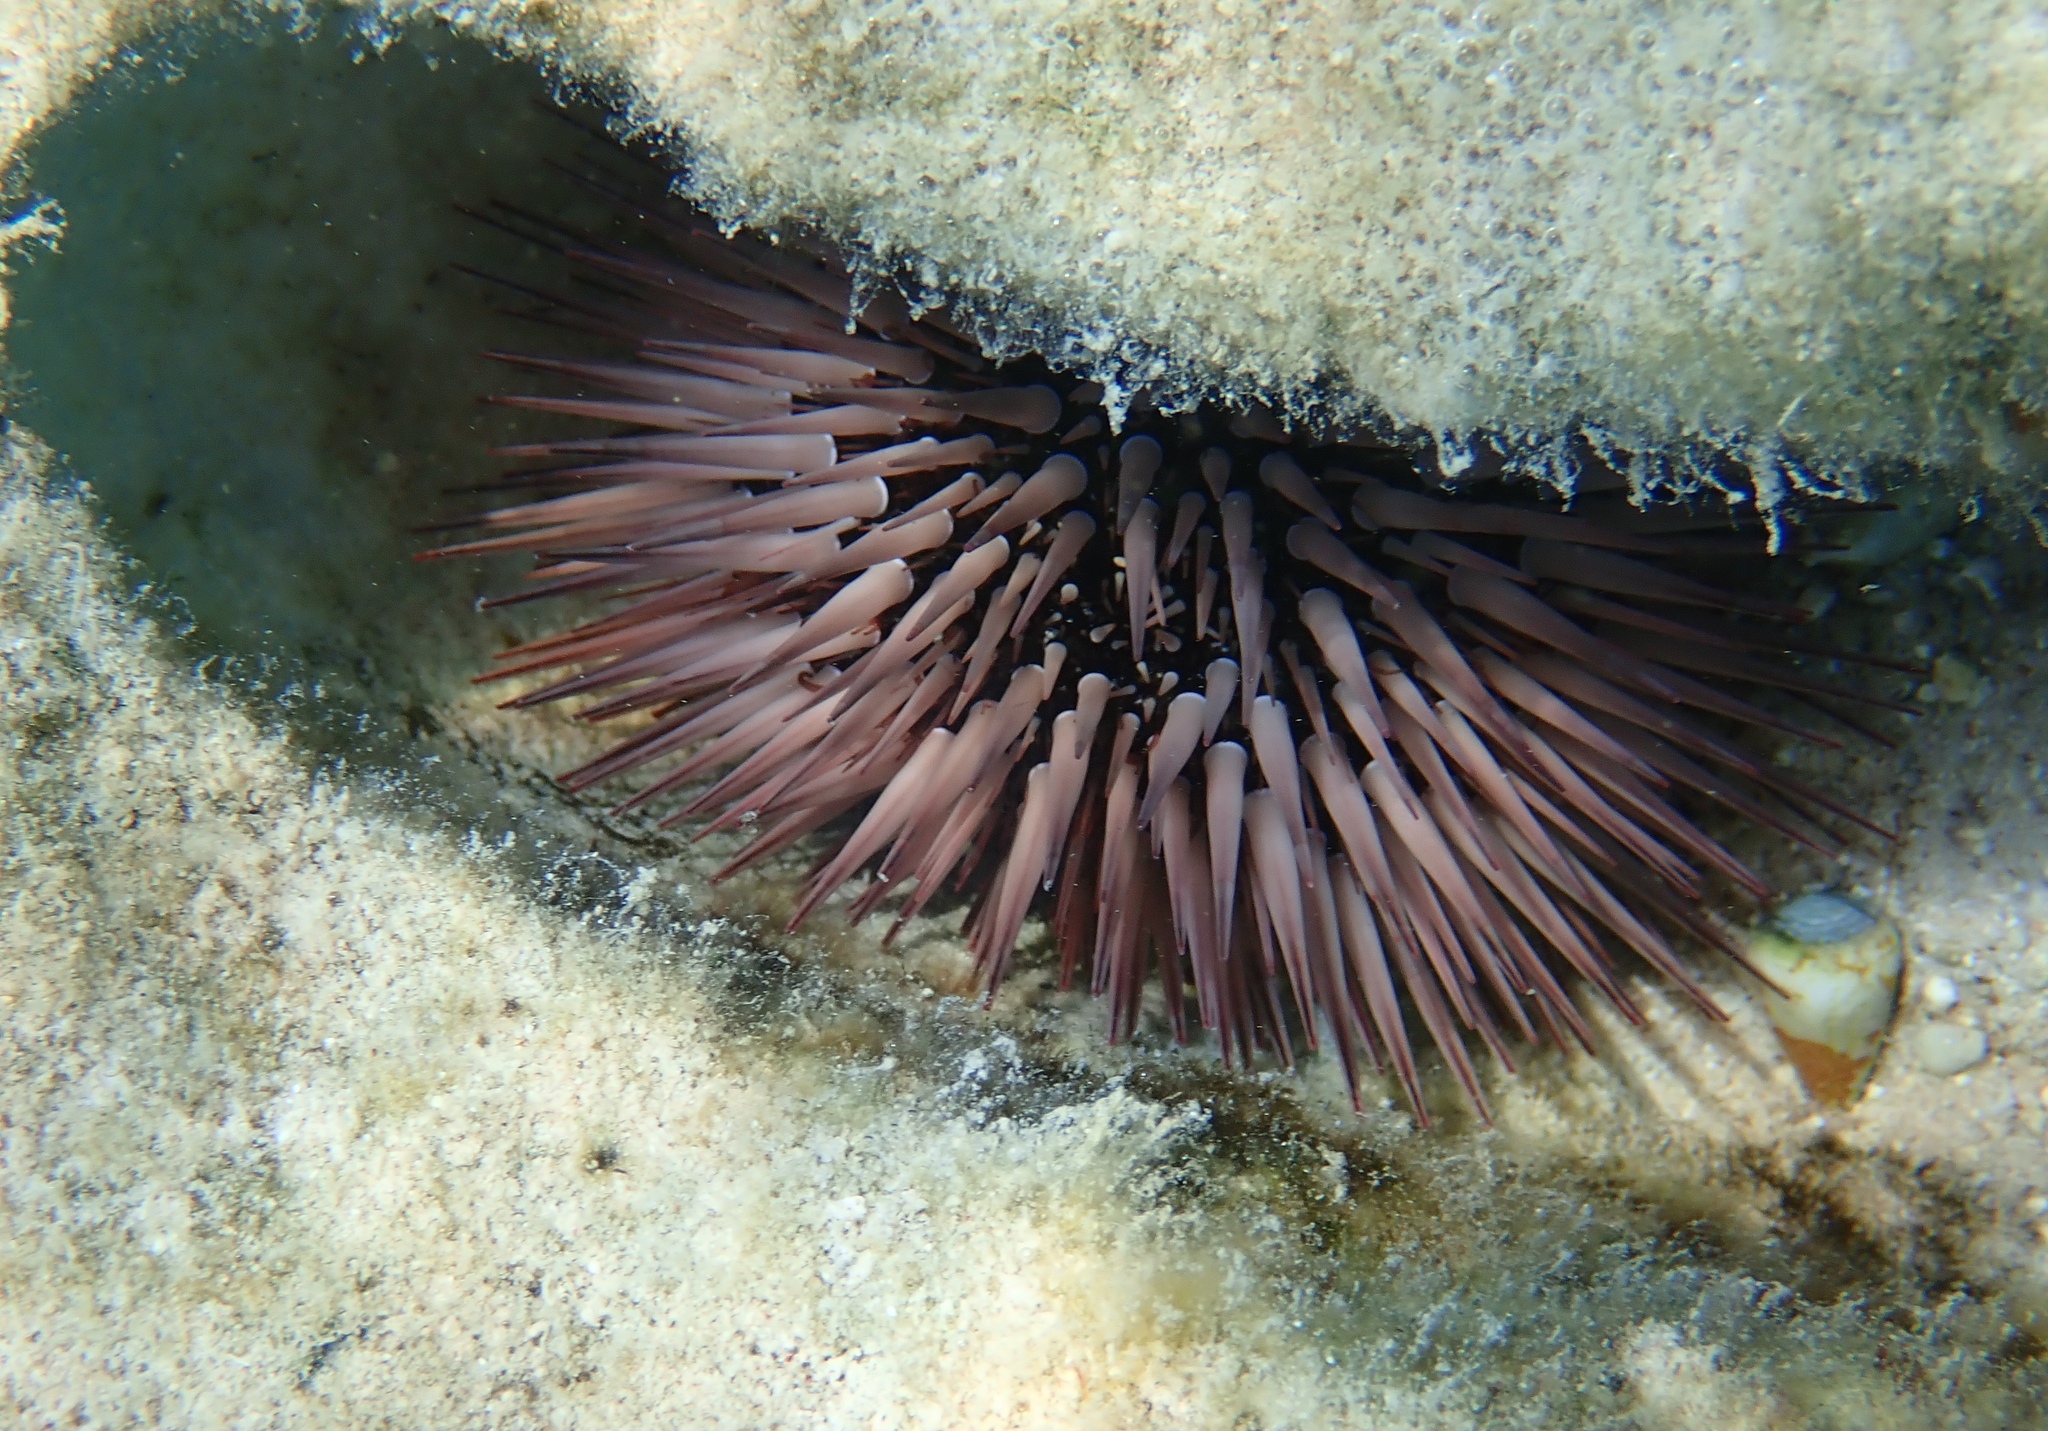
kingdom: Animalia
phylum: Echinodermata
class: Echinoidea
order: Camarodonta
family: Echinometridae
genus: Echinometra
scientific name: Echinometra mathaei
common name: Rock-boring urchin
